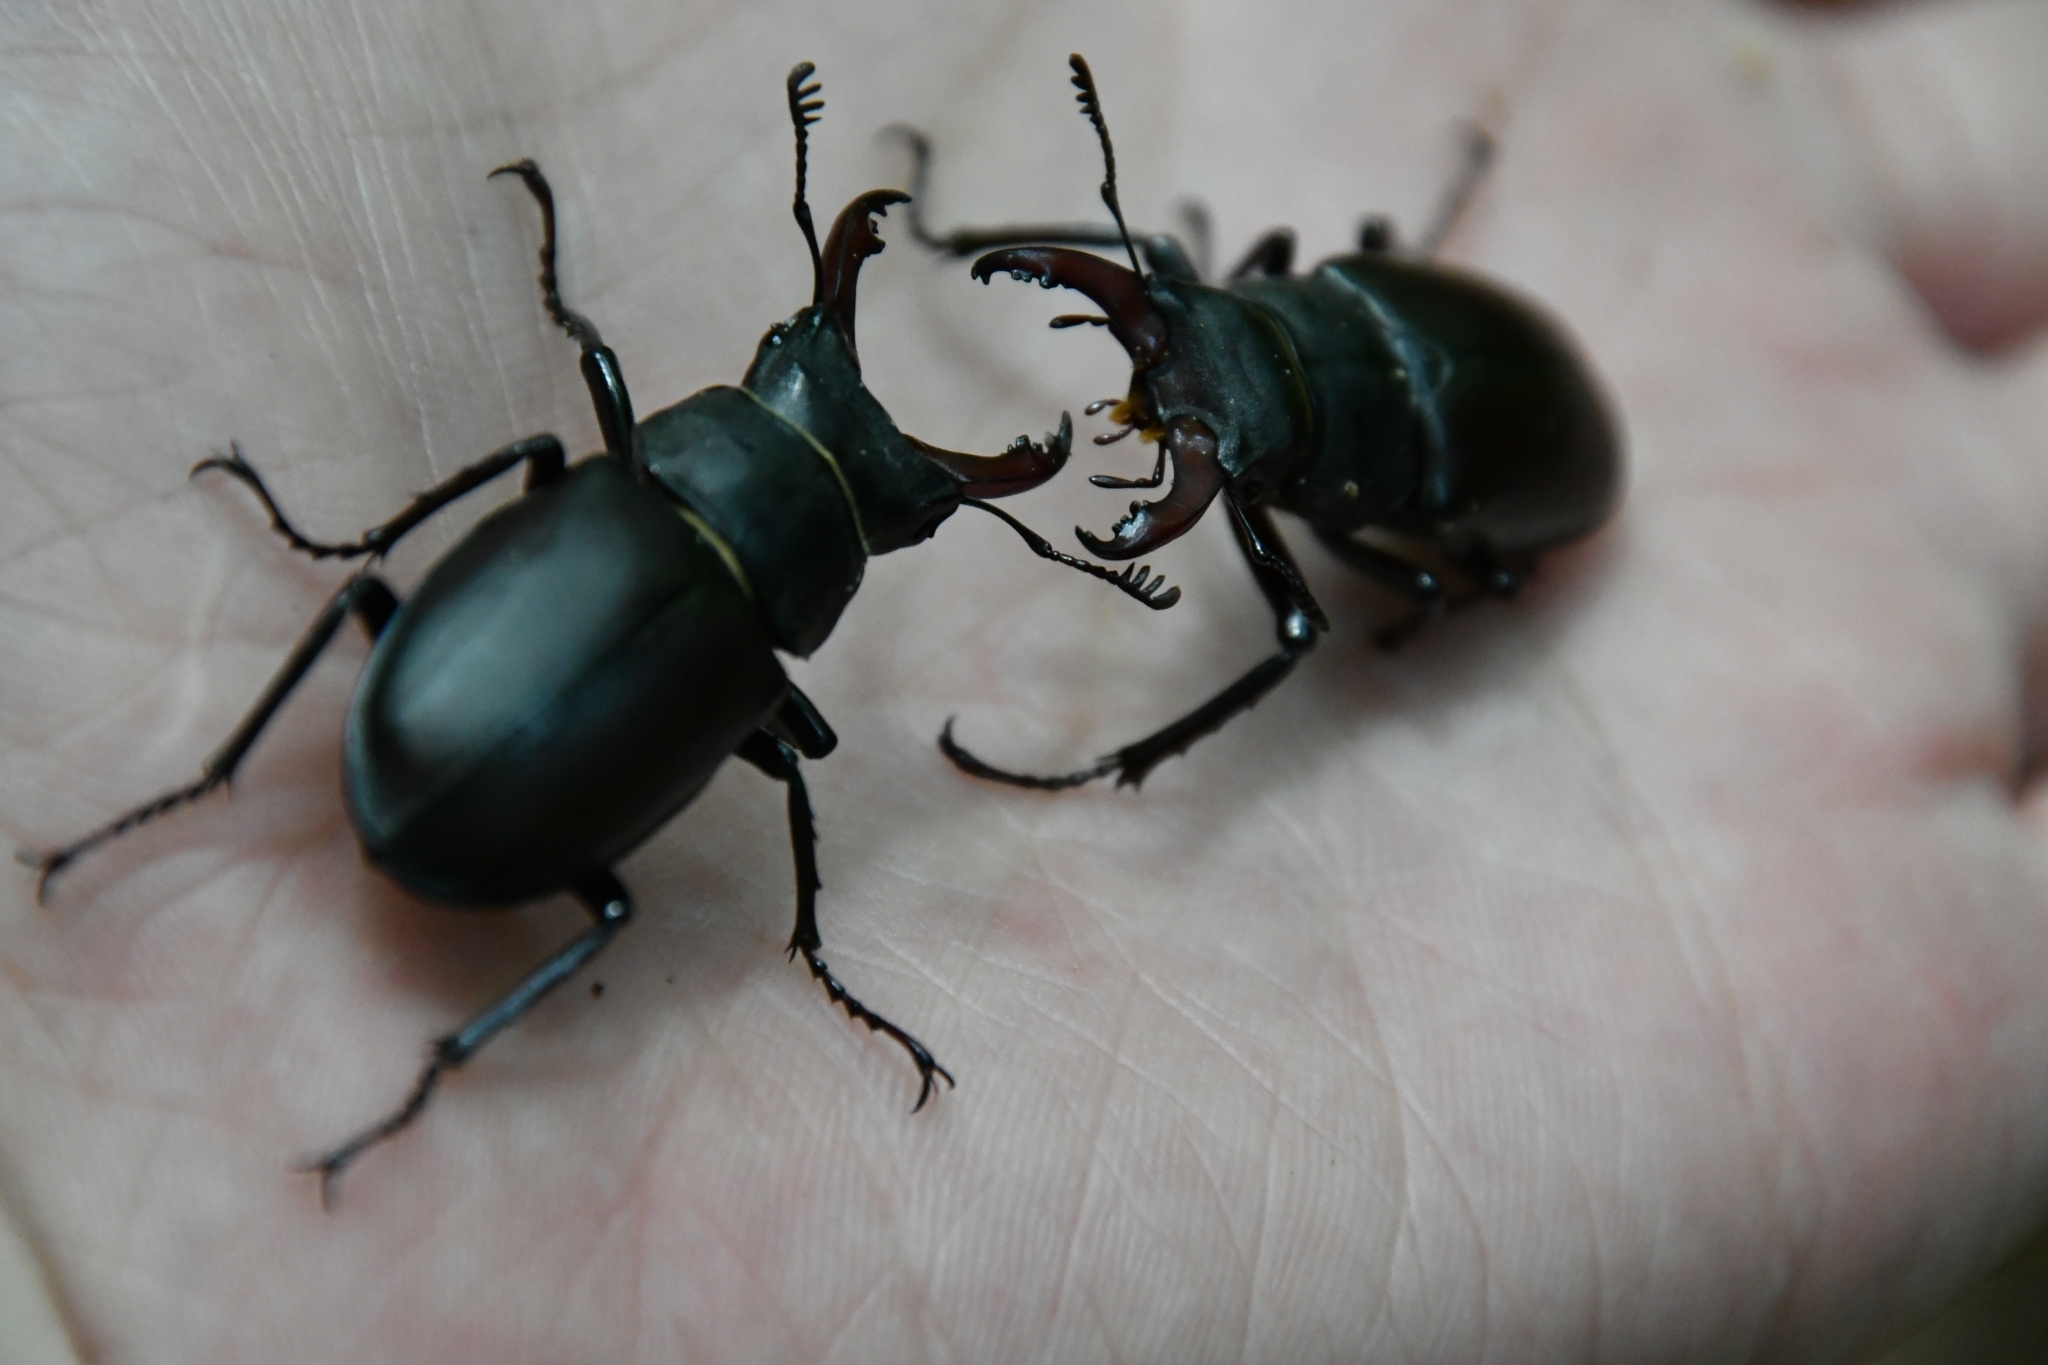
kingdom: Animalia
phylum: Arthropoda
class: Insecta
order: Coleoptera
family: Lucanidae
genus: Lucanus
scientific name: Lucanus cervus
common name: Stag beetle
